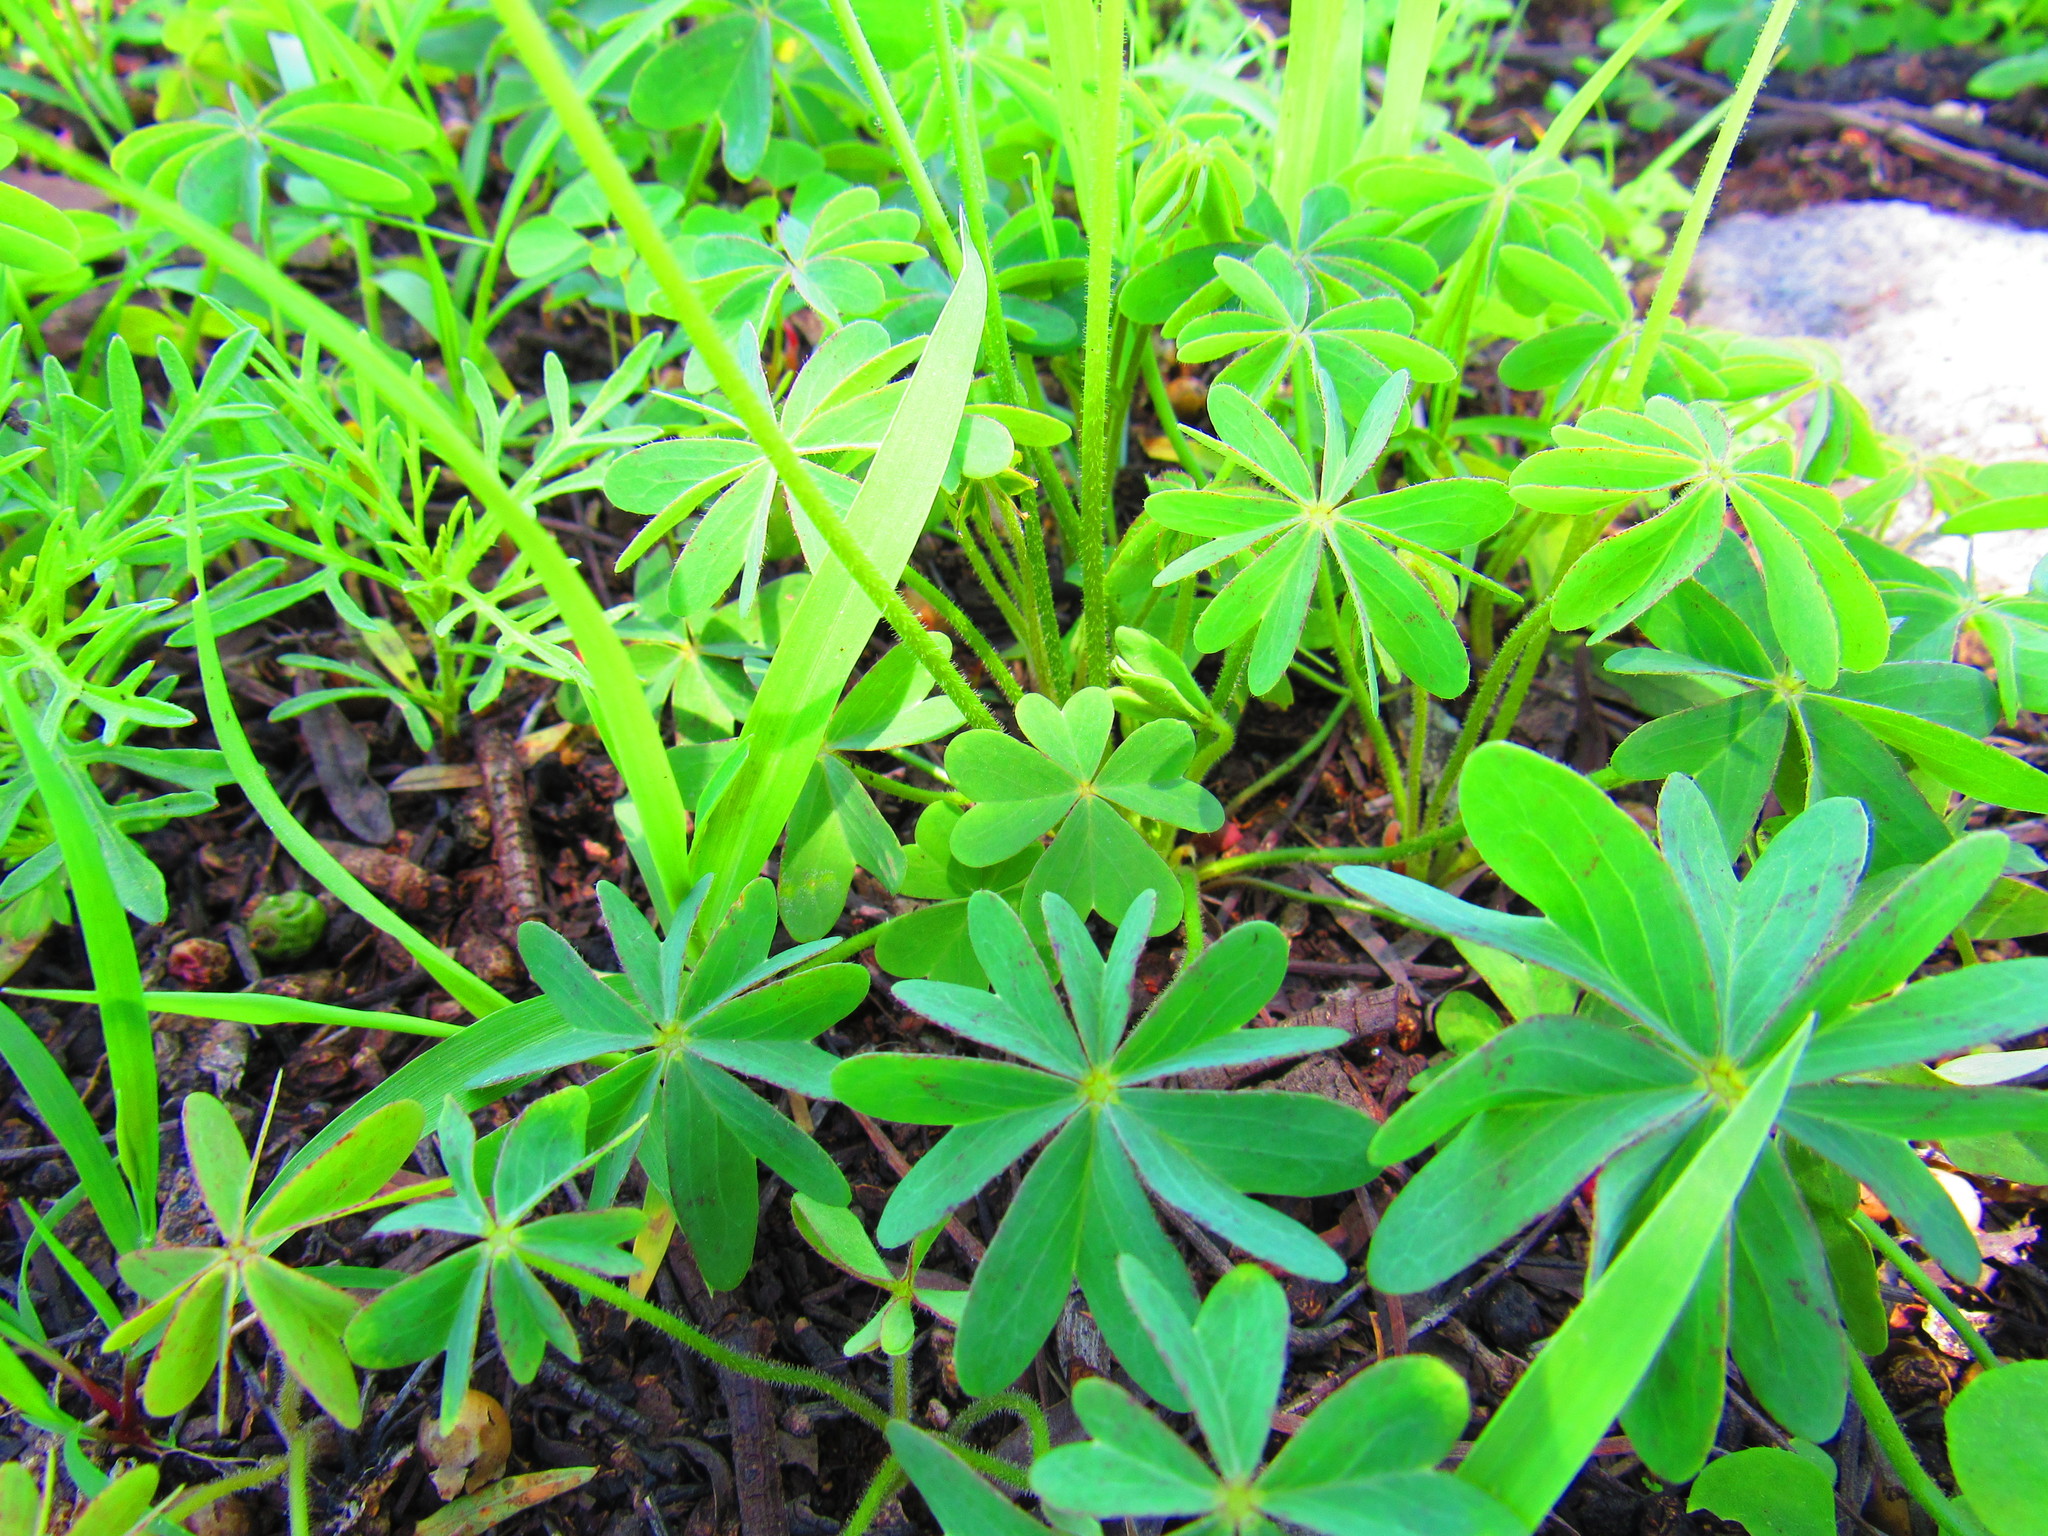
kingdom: Plantae
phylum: Tracheophyta
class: Magnoliopsida
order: Oxalidales
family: Oxalidaceae
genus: Oxalis
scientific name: Oxalis decaphylla
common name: Ten-leaved pink-sorrel
